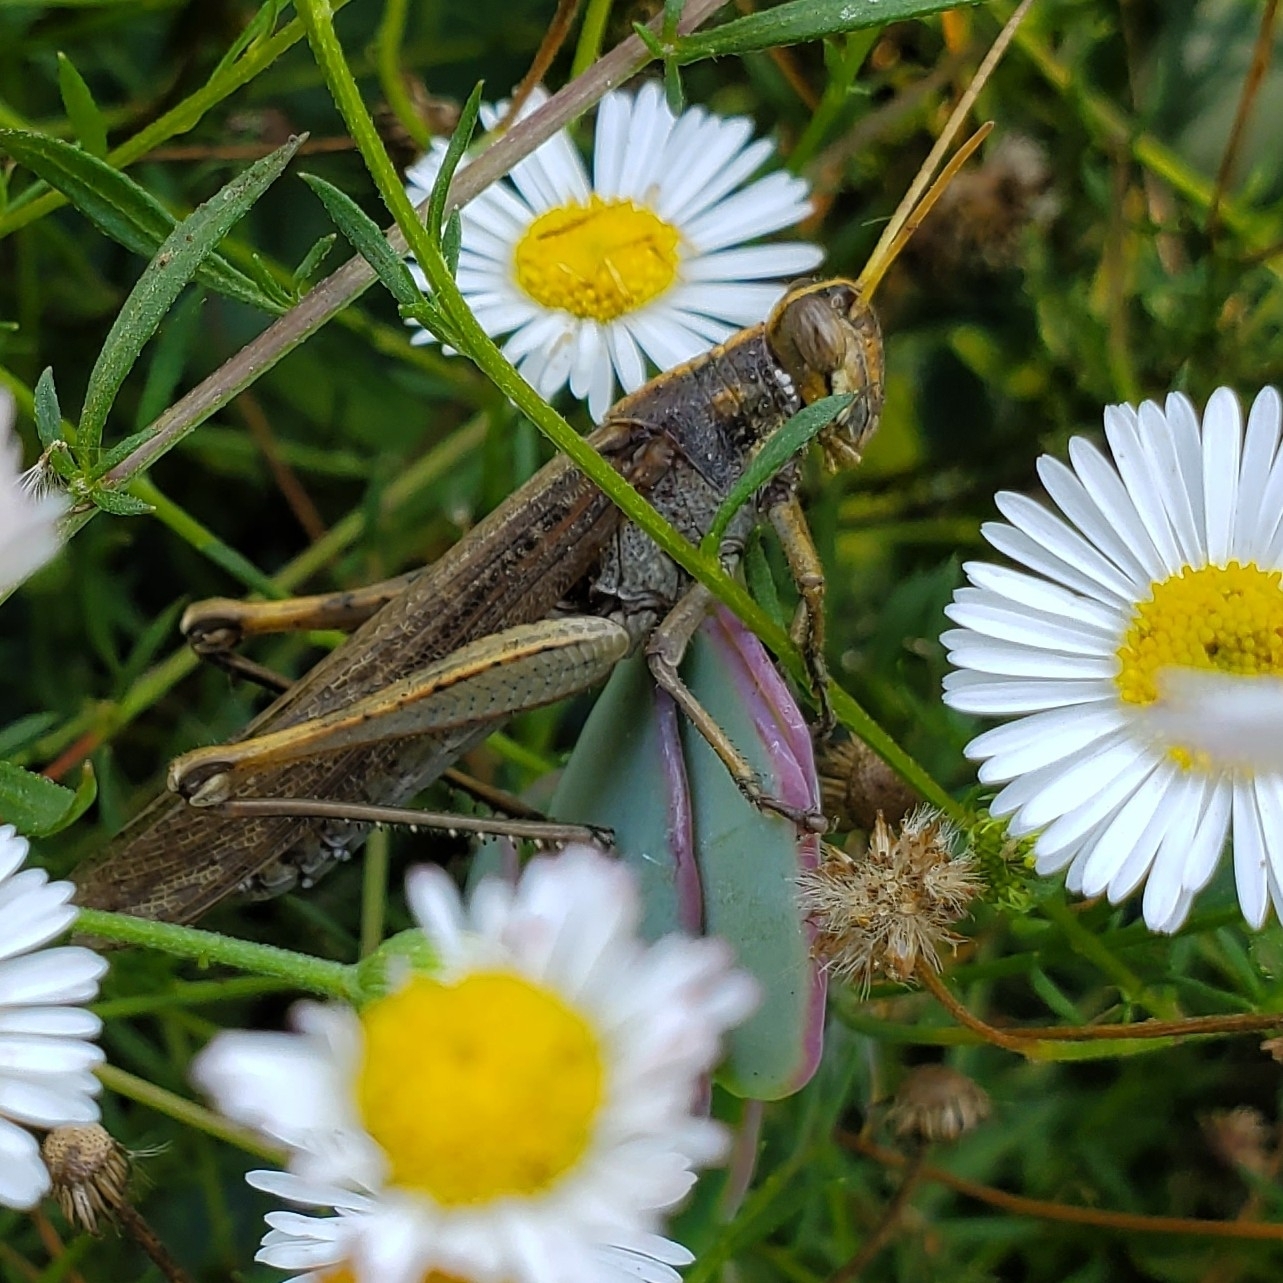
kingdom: Animalia
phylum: Arthropoda
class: Insecta
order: Orthoptera
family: Acrididae
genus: Schistocerca
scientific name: Schistocerca nitens
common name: Vagrant grasshopper
